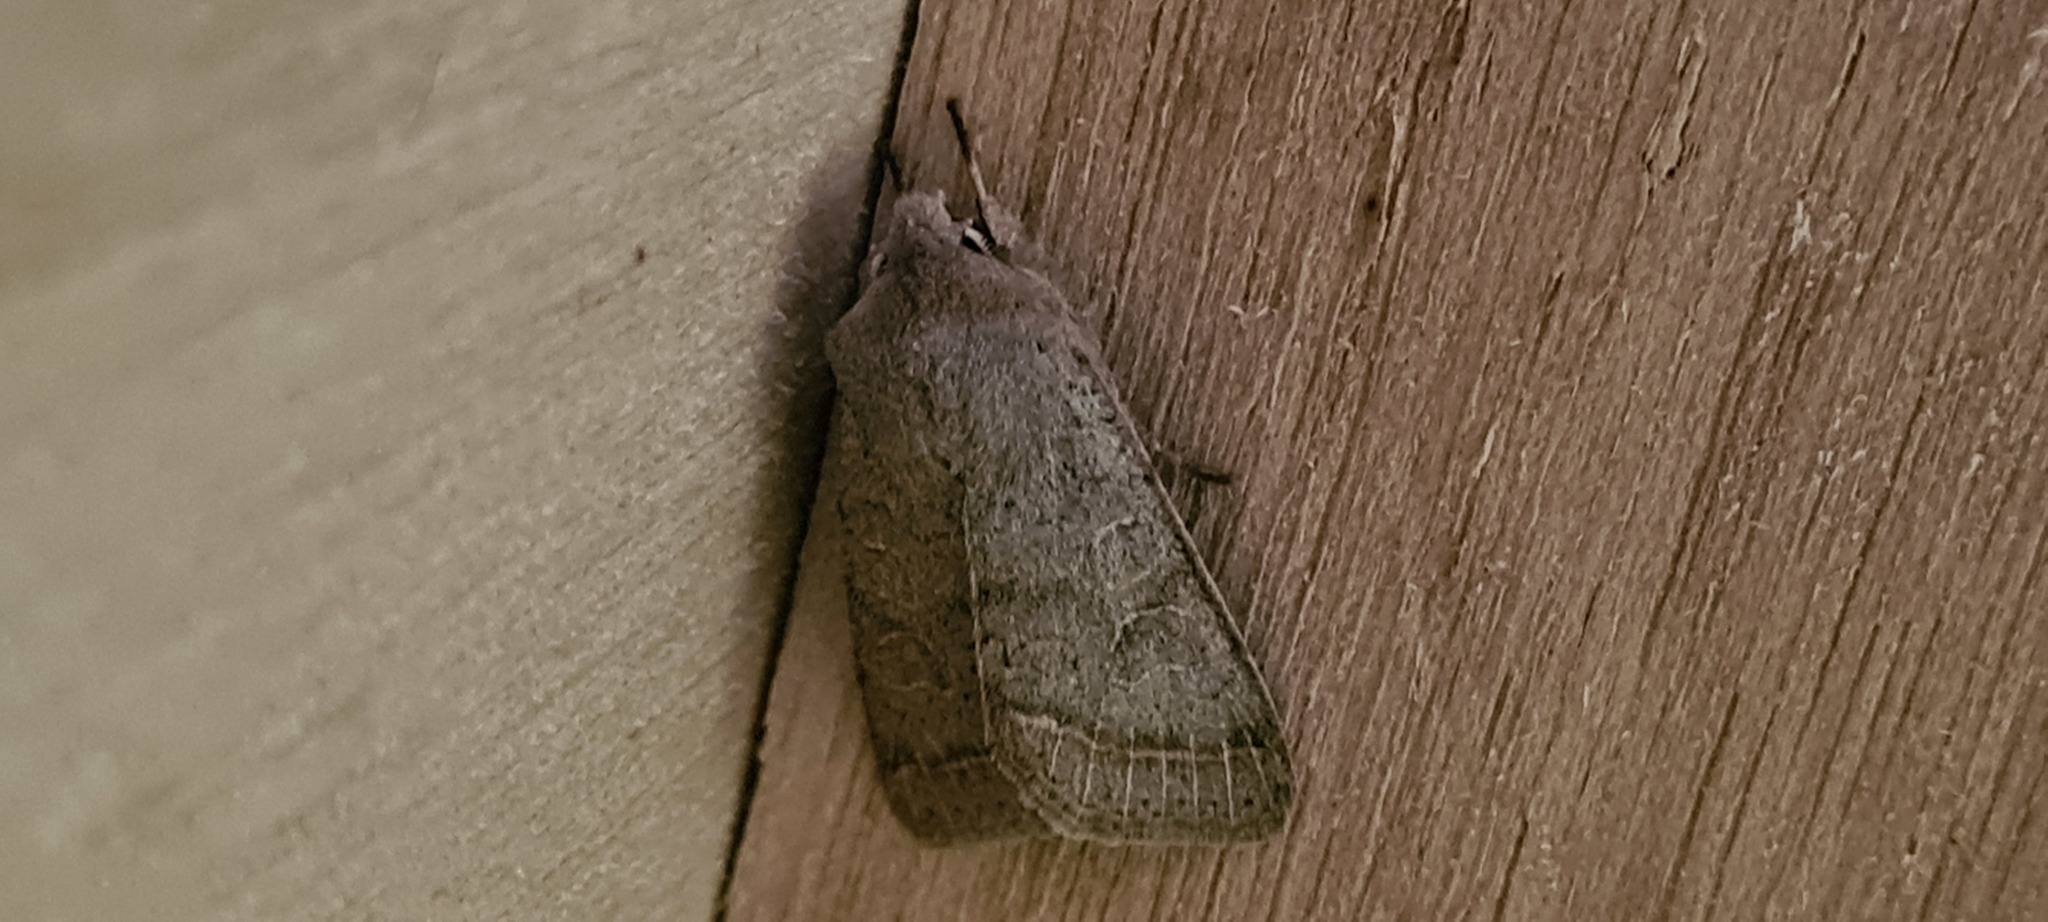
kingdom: Animalia
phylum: Arthropoda
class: Insecta
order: Lepidoptera
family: Noctuidae
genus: Orthosia
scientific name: Orthosia cerasi
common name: Common quaker
